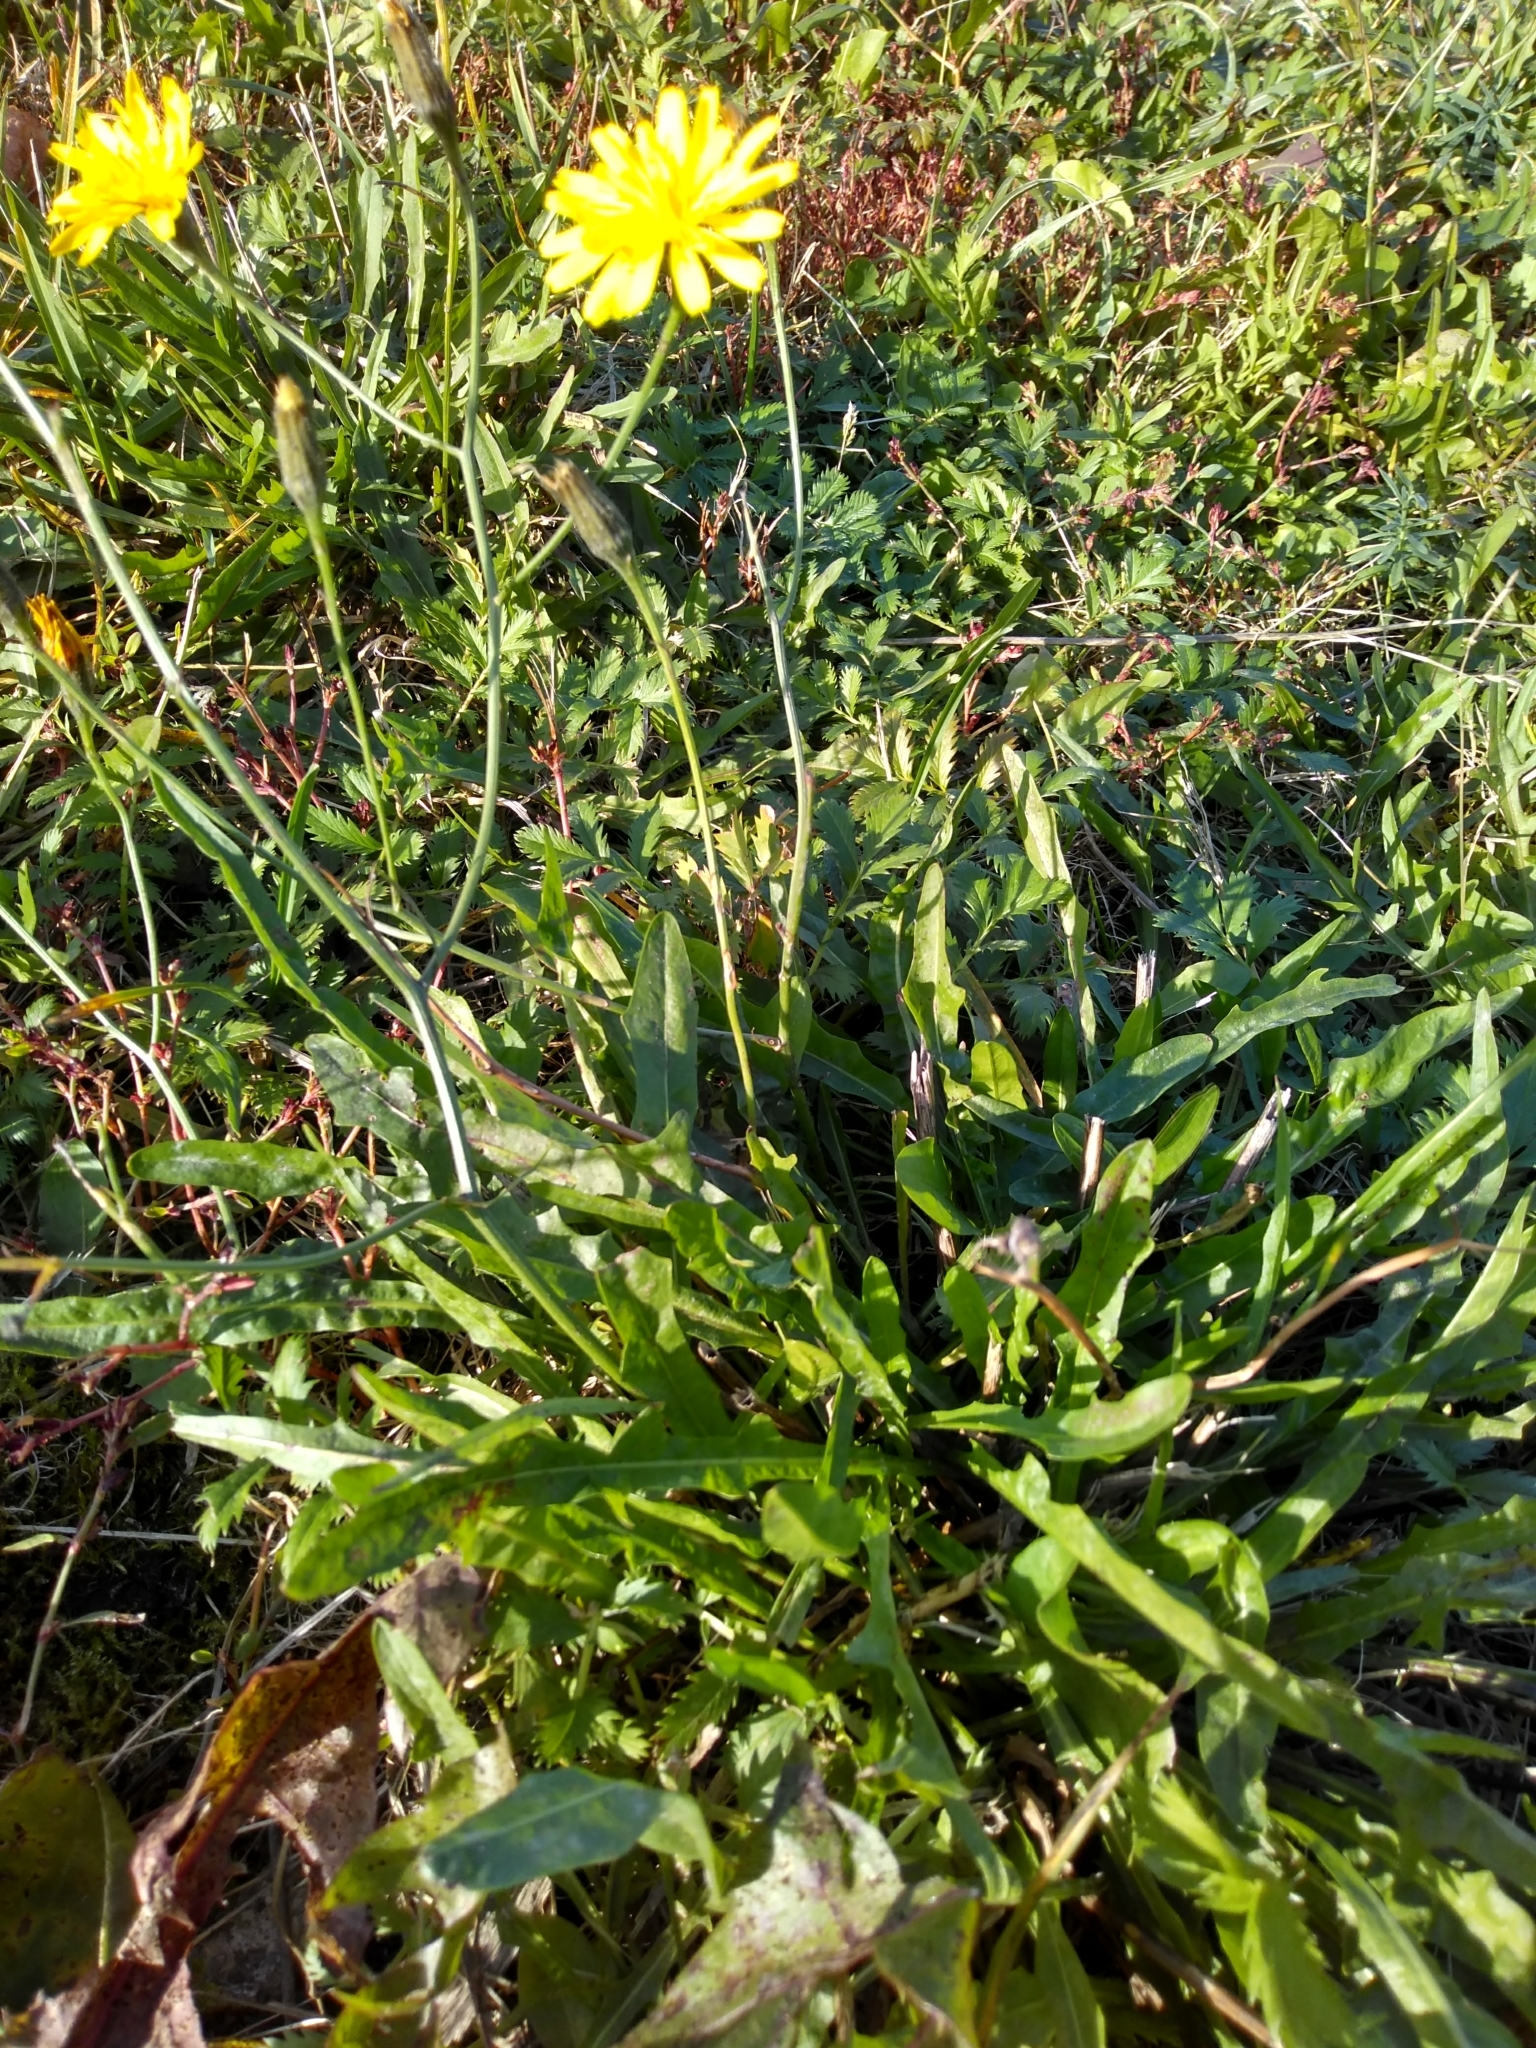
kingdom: Plantae
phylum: Tracheophyta
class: Magnoliopsida
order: Asterales
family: Asteraceae
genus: Scorzoneroides
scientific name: Scorzoneroides autumnalis
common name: Autumn hawkbit
